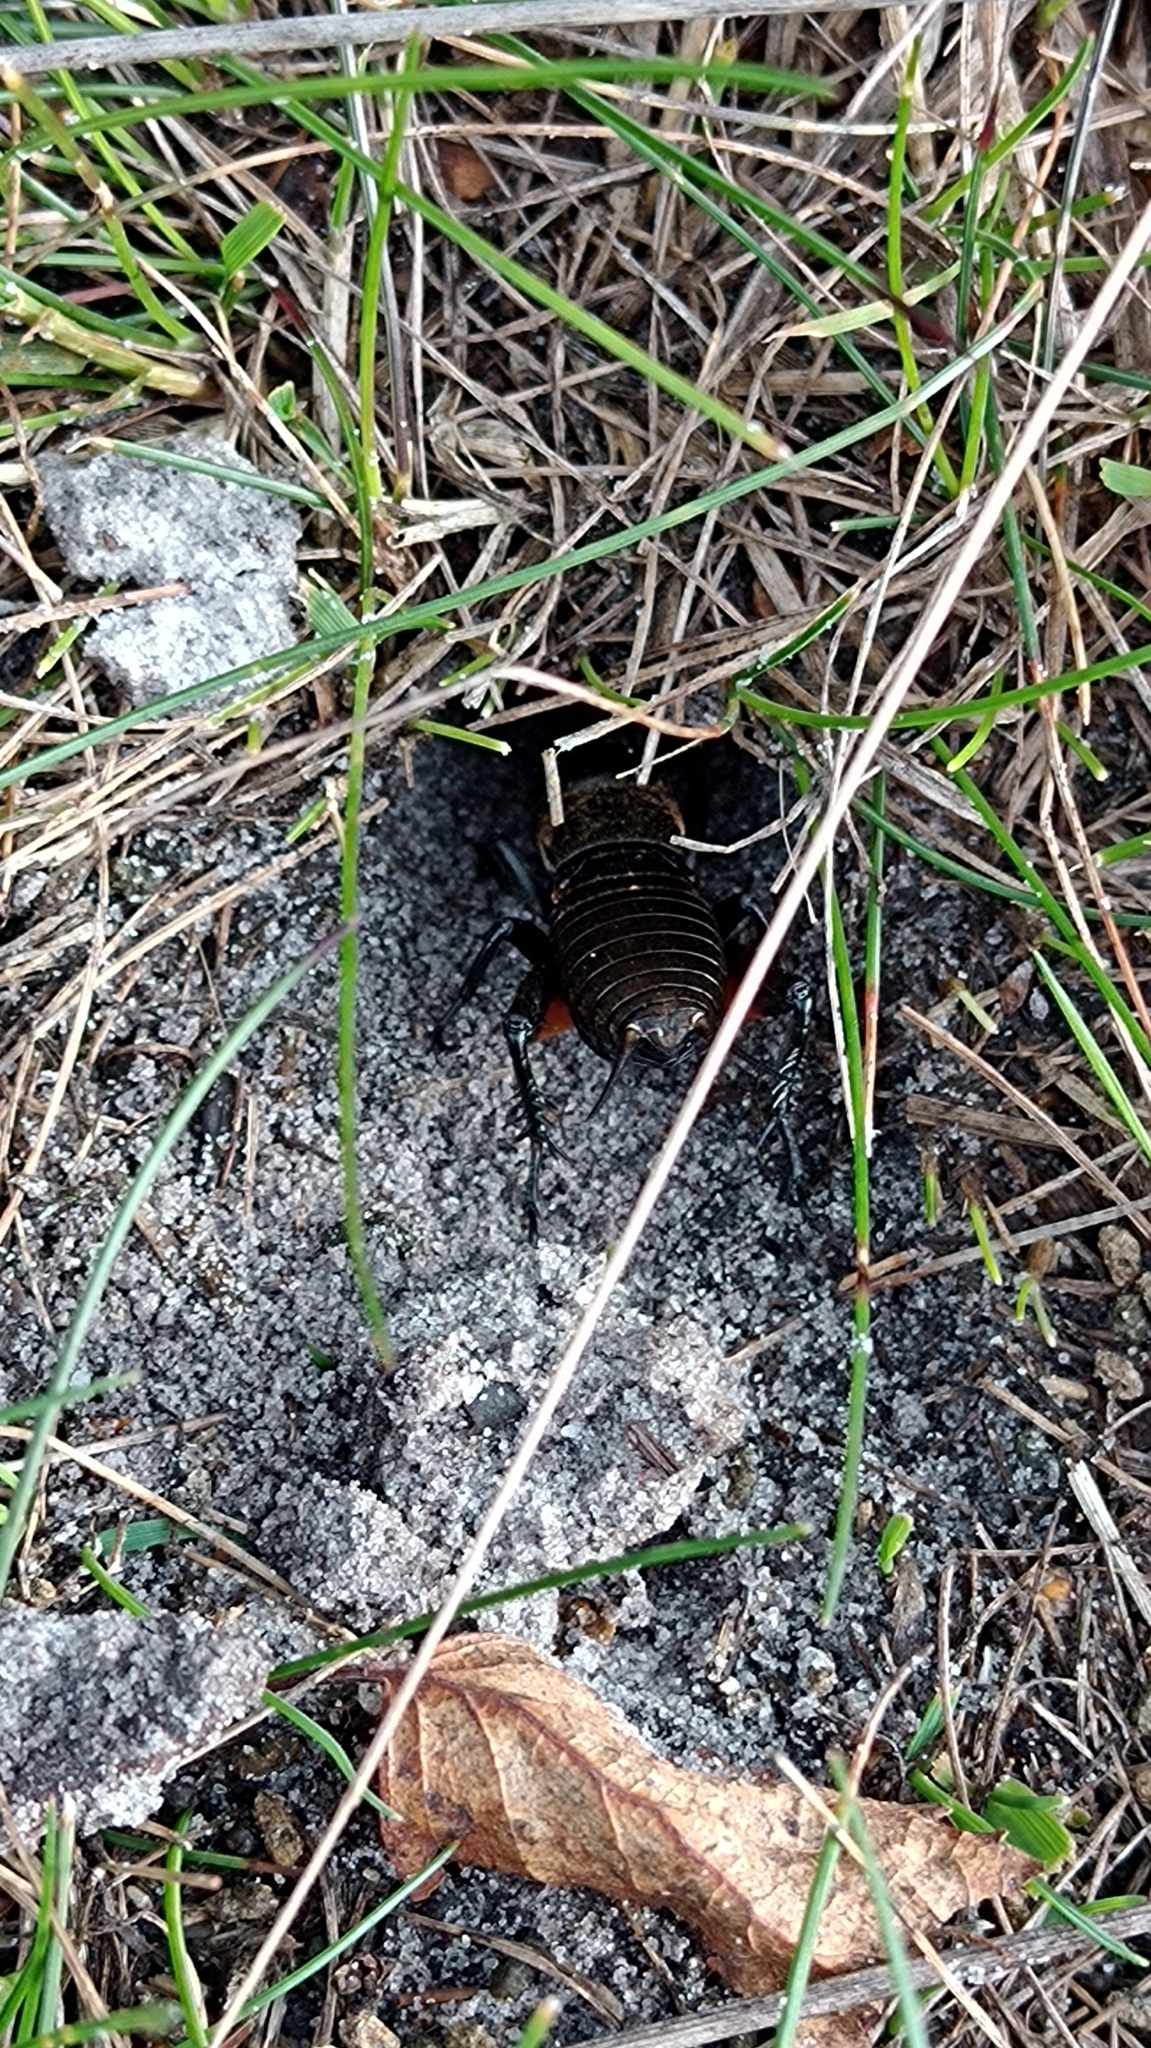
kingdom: Animalia
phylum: Arthropoda
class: Insecta
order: Orthoptera
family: Gryllidae
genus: Gryllus
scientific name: Gryllus campestris
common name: Field cricket
